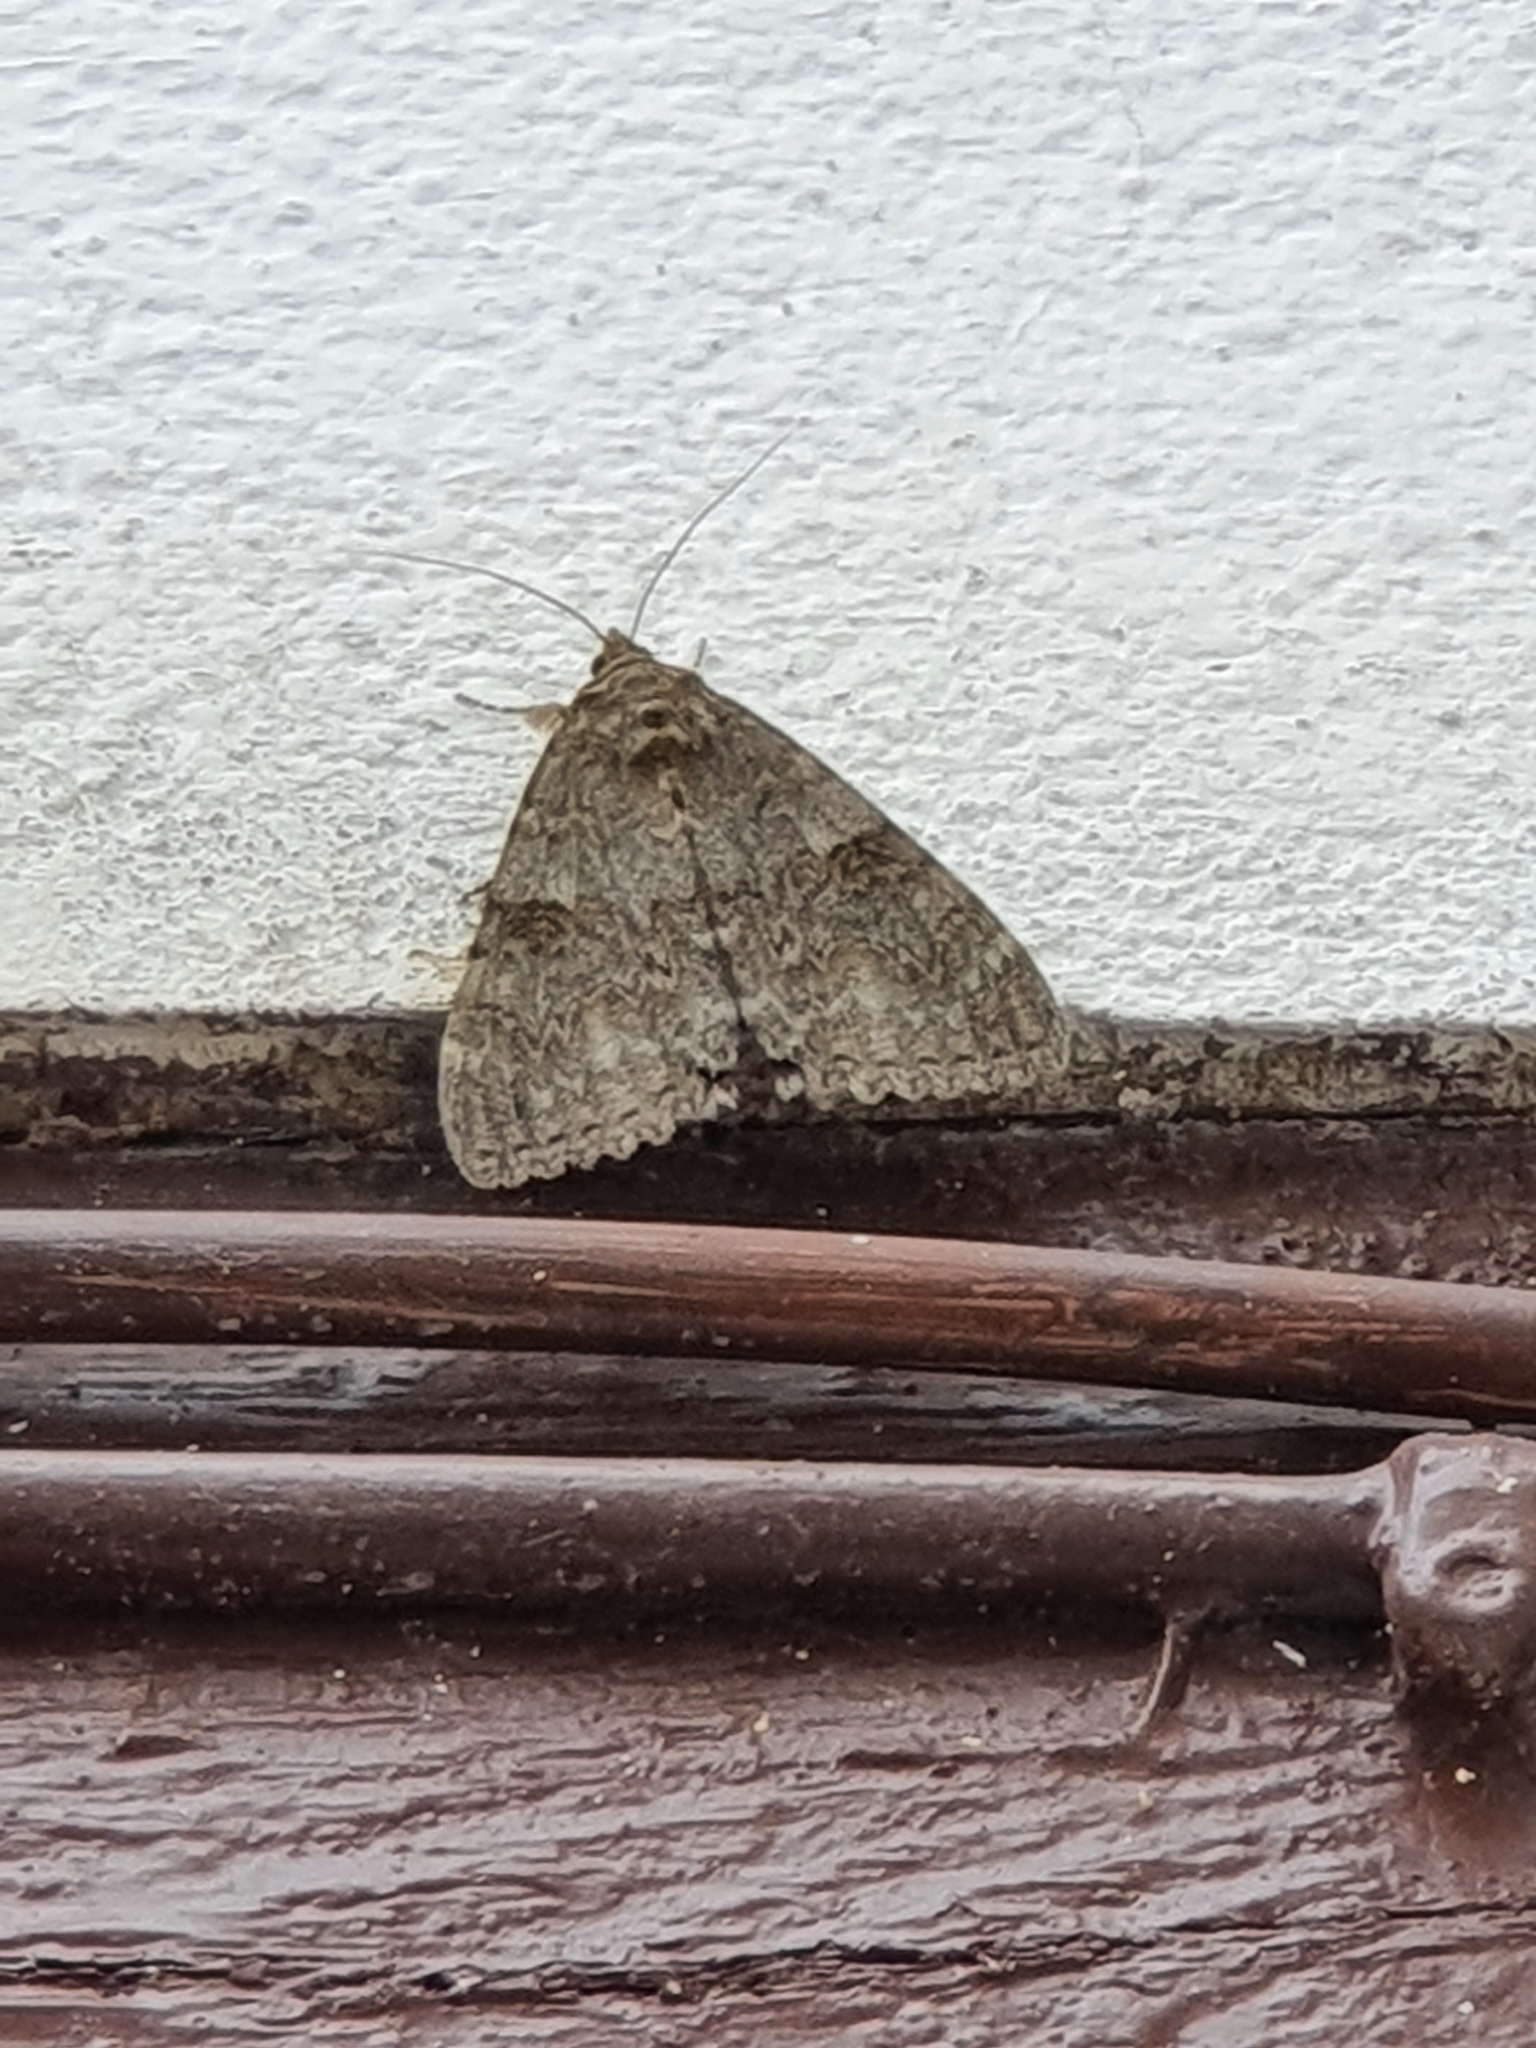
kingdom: Animalia
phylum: Arthropoda
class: Insecta
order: Lepidoptera
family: Erebidae
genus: Catocala
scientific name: Catocala nupta
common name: Red underwing
